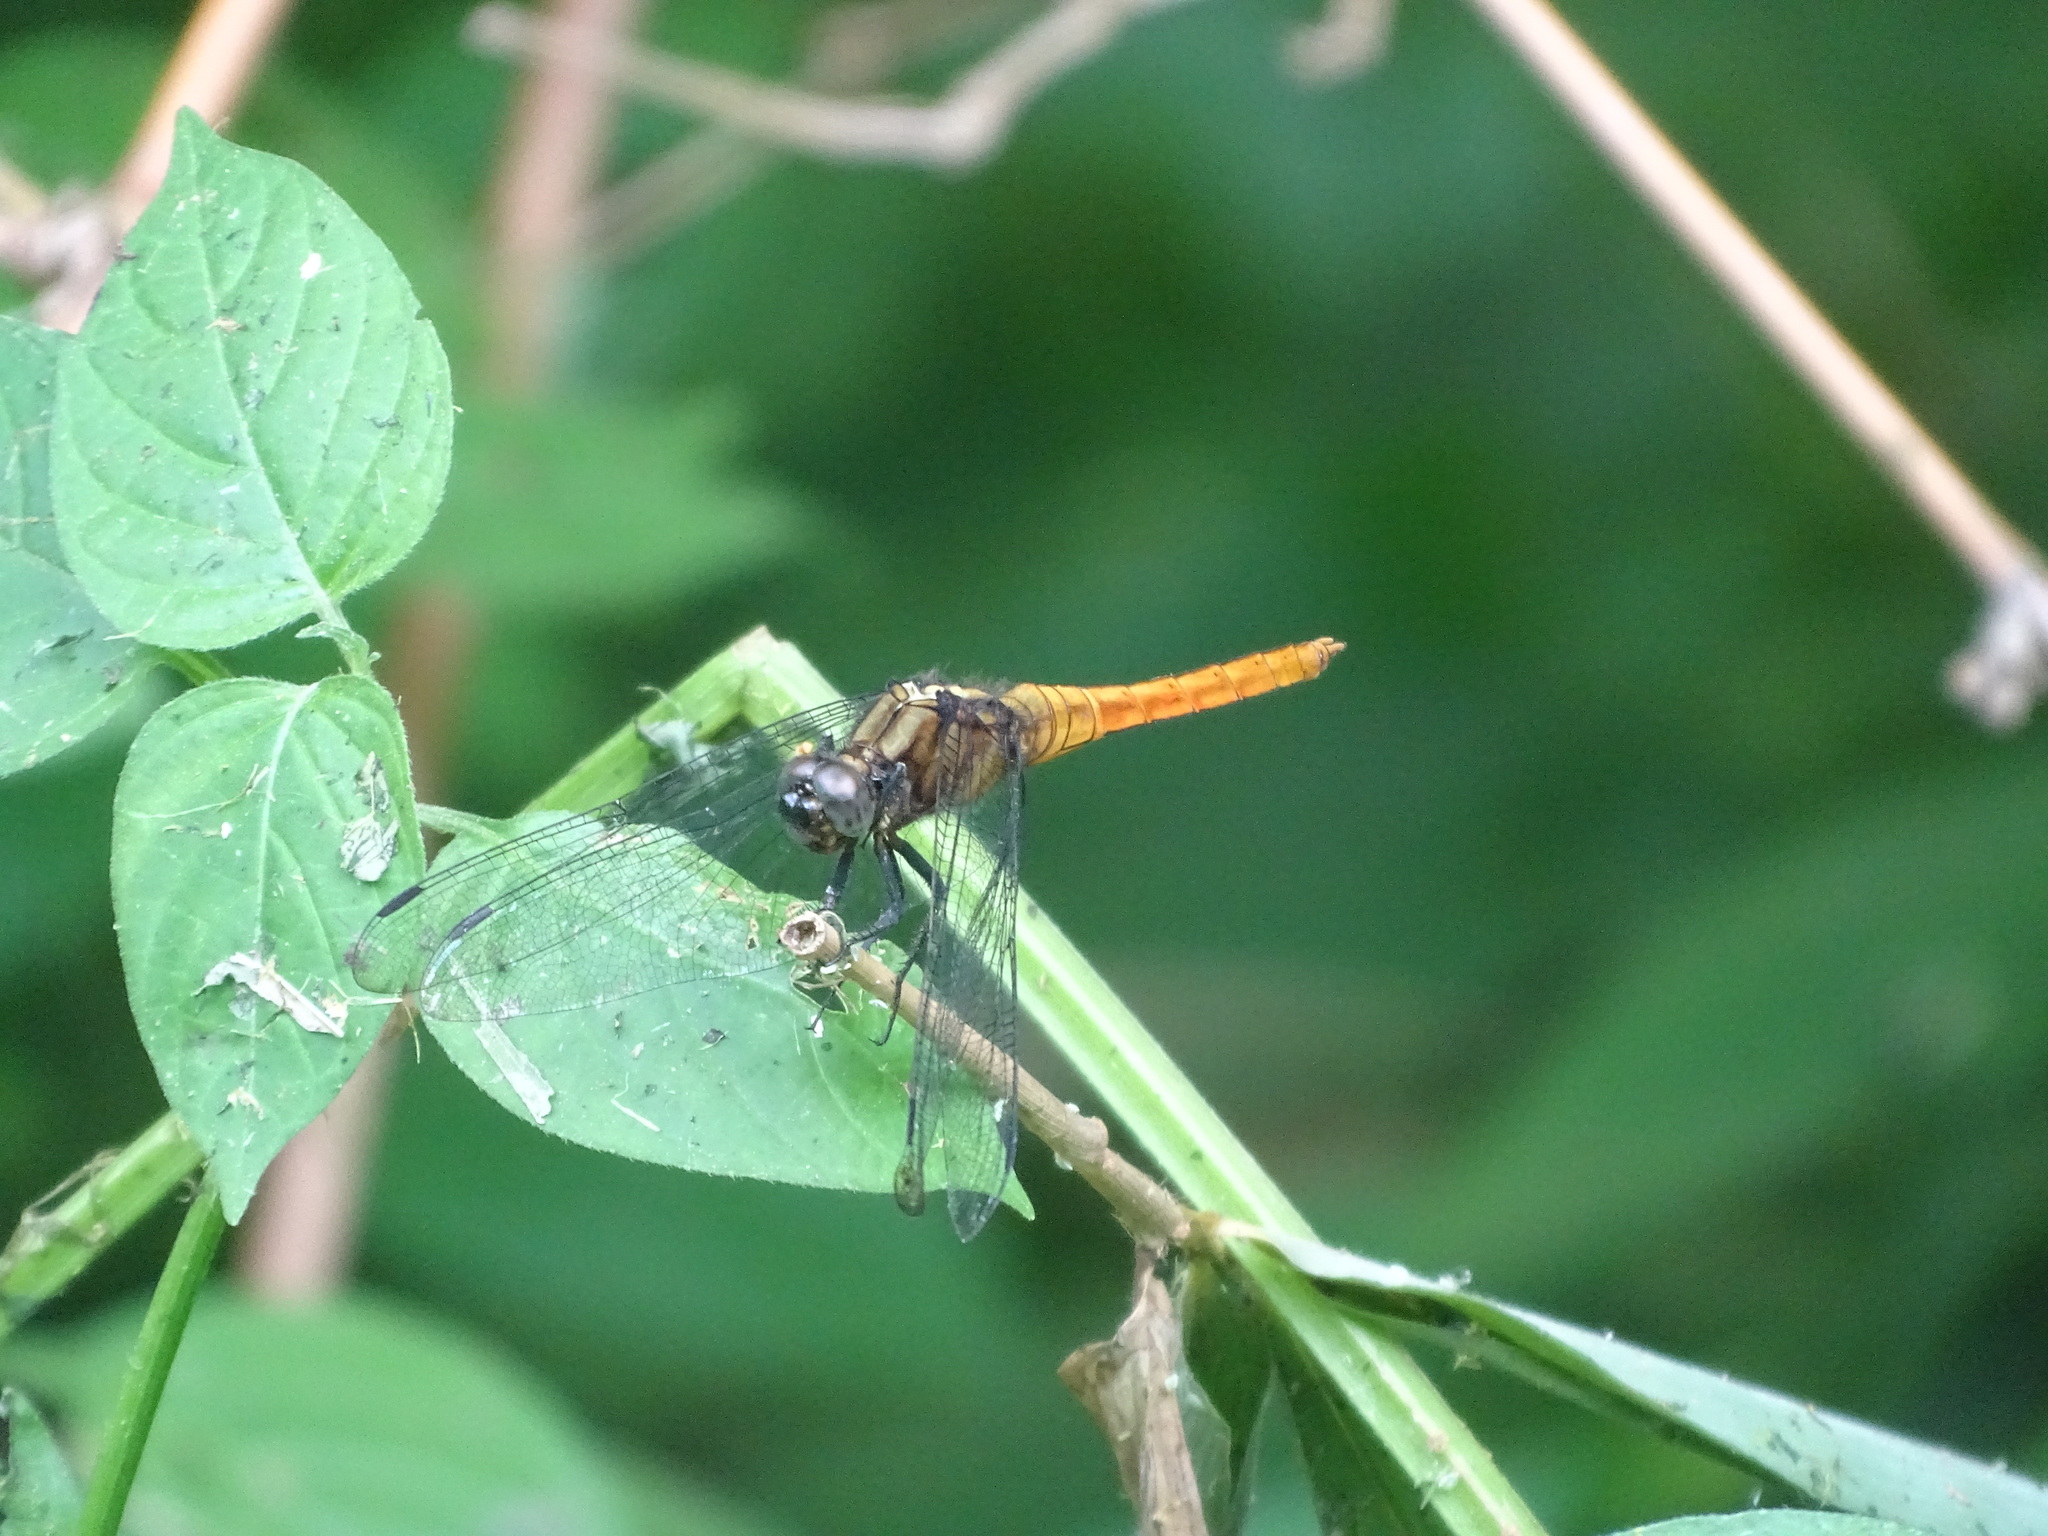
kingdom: Animalia
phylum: Arthropoda
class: Insecta
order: Odonata
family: Libellulidae
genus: Orthetrum
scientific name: Orthetrum pruinosum
